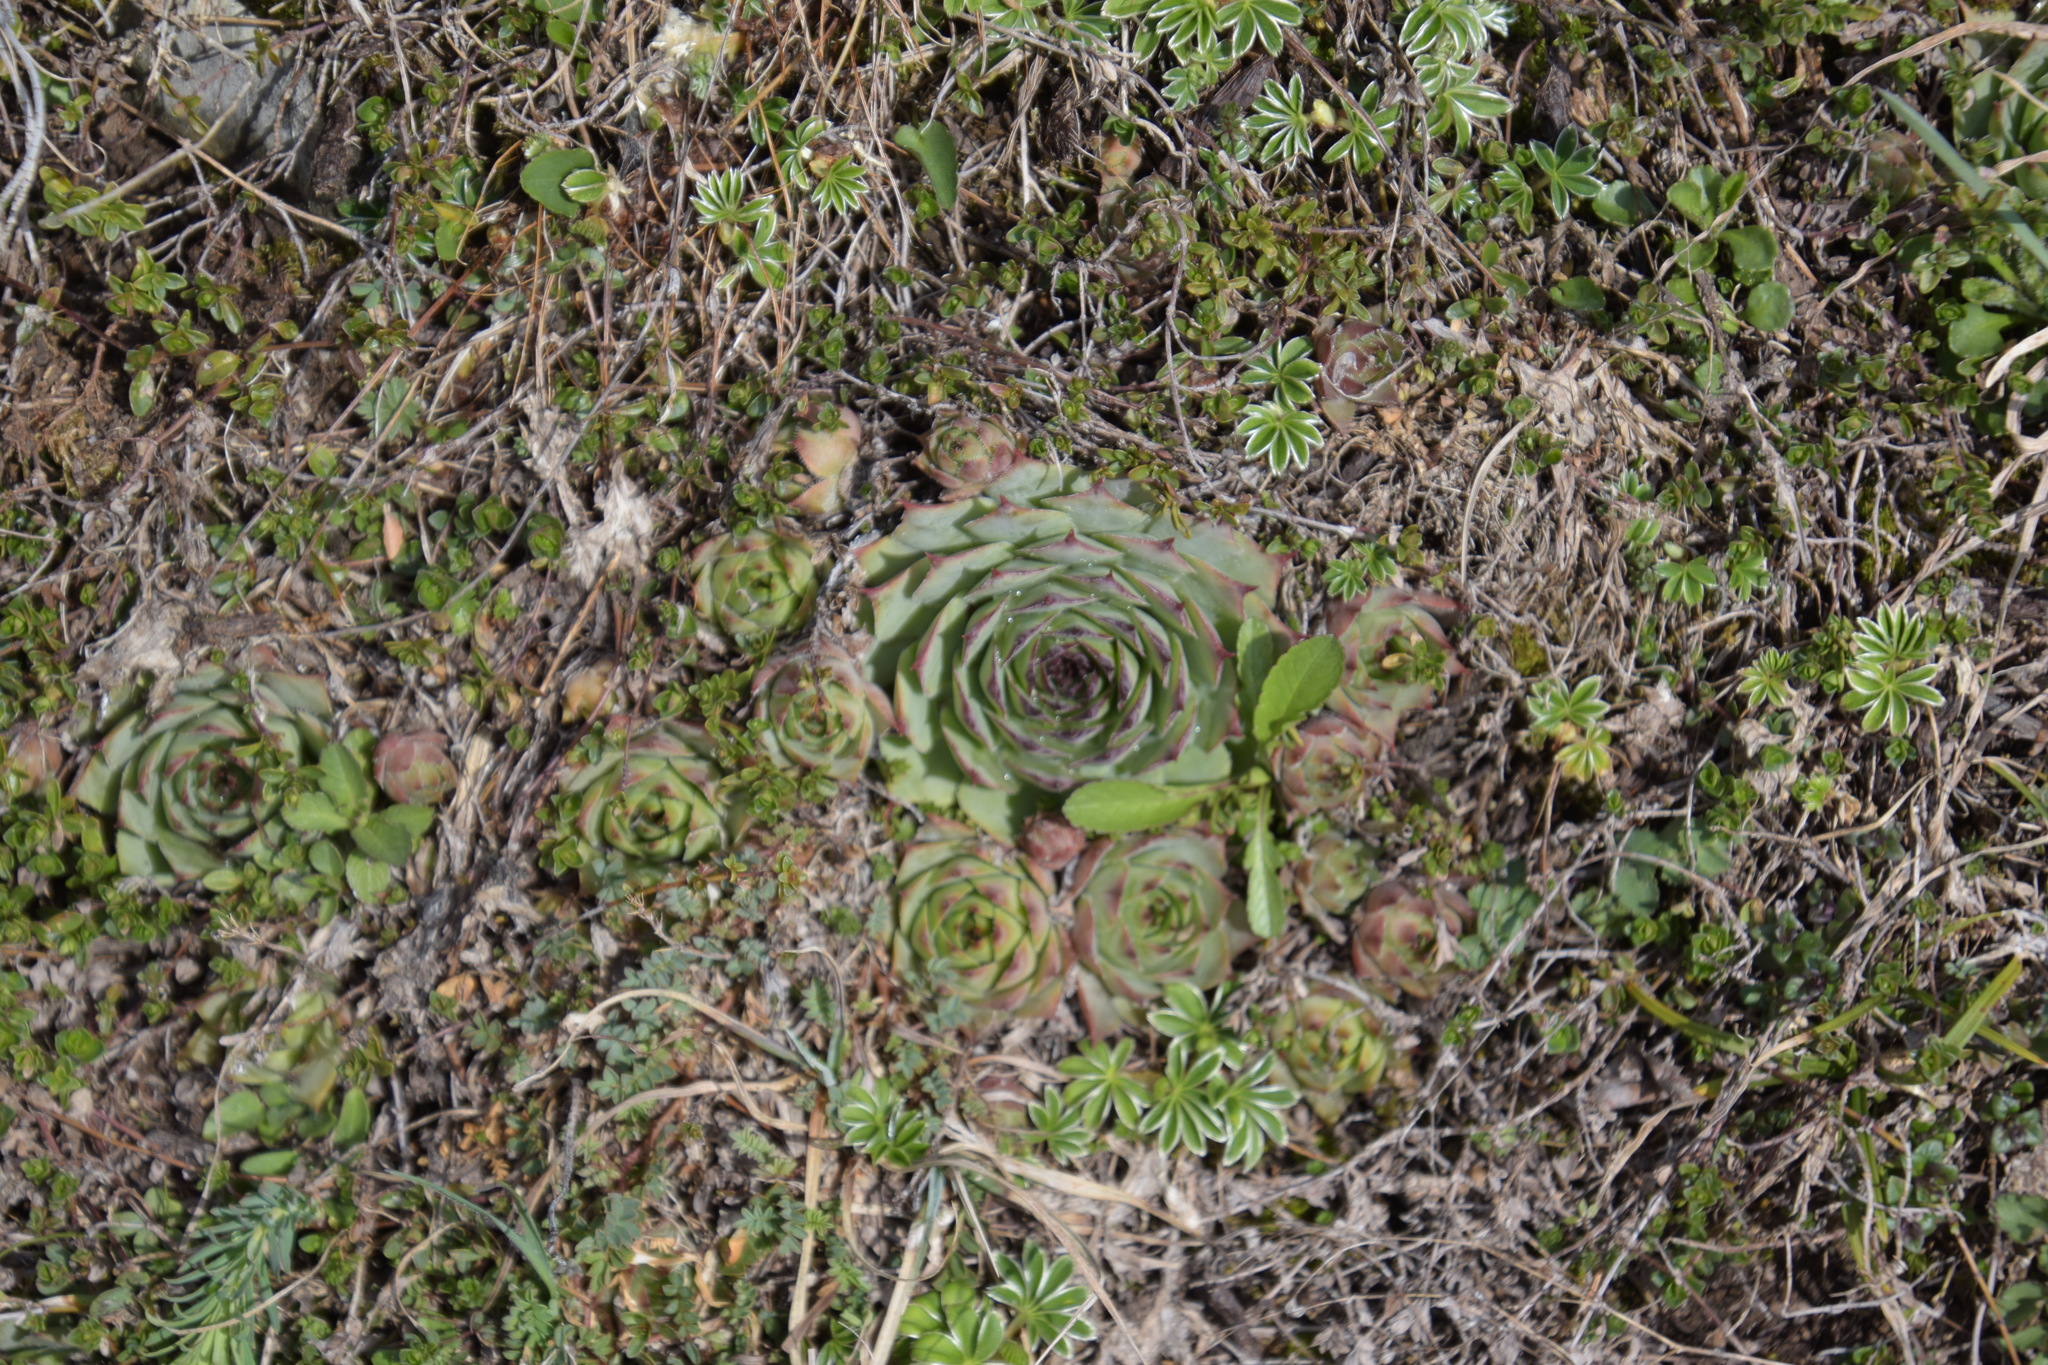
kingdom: Plantae
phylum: Tracheophyta
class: Magnoliopsida
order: Saxifragales
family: Crassulaceae
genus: Sempervivum
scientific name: Sempervivum tectorum
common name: House-leek
